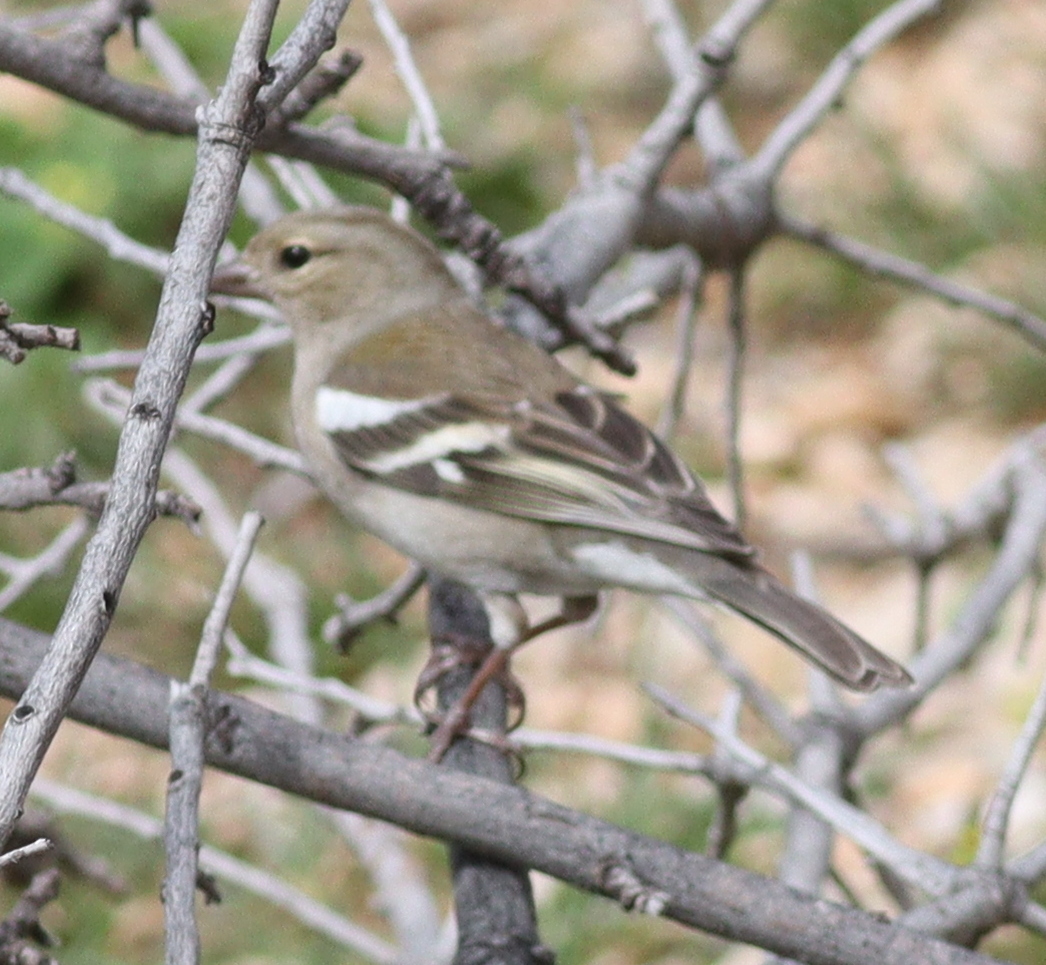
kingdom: Animalia
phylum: Chordata
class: Aves
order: Passeriformes
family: Fringillidae
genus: Fringilla
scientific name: Fringilla coelebs
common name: Common chaffinch
